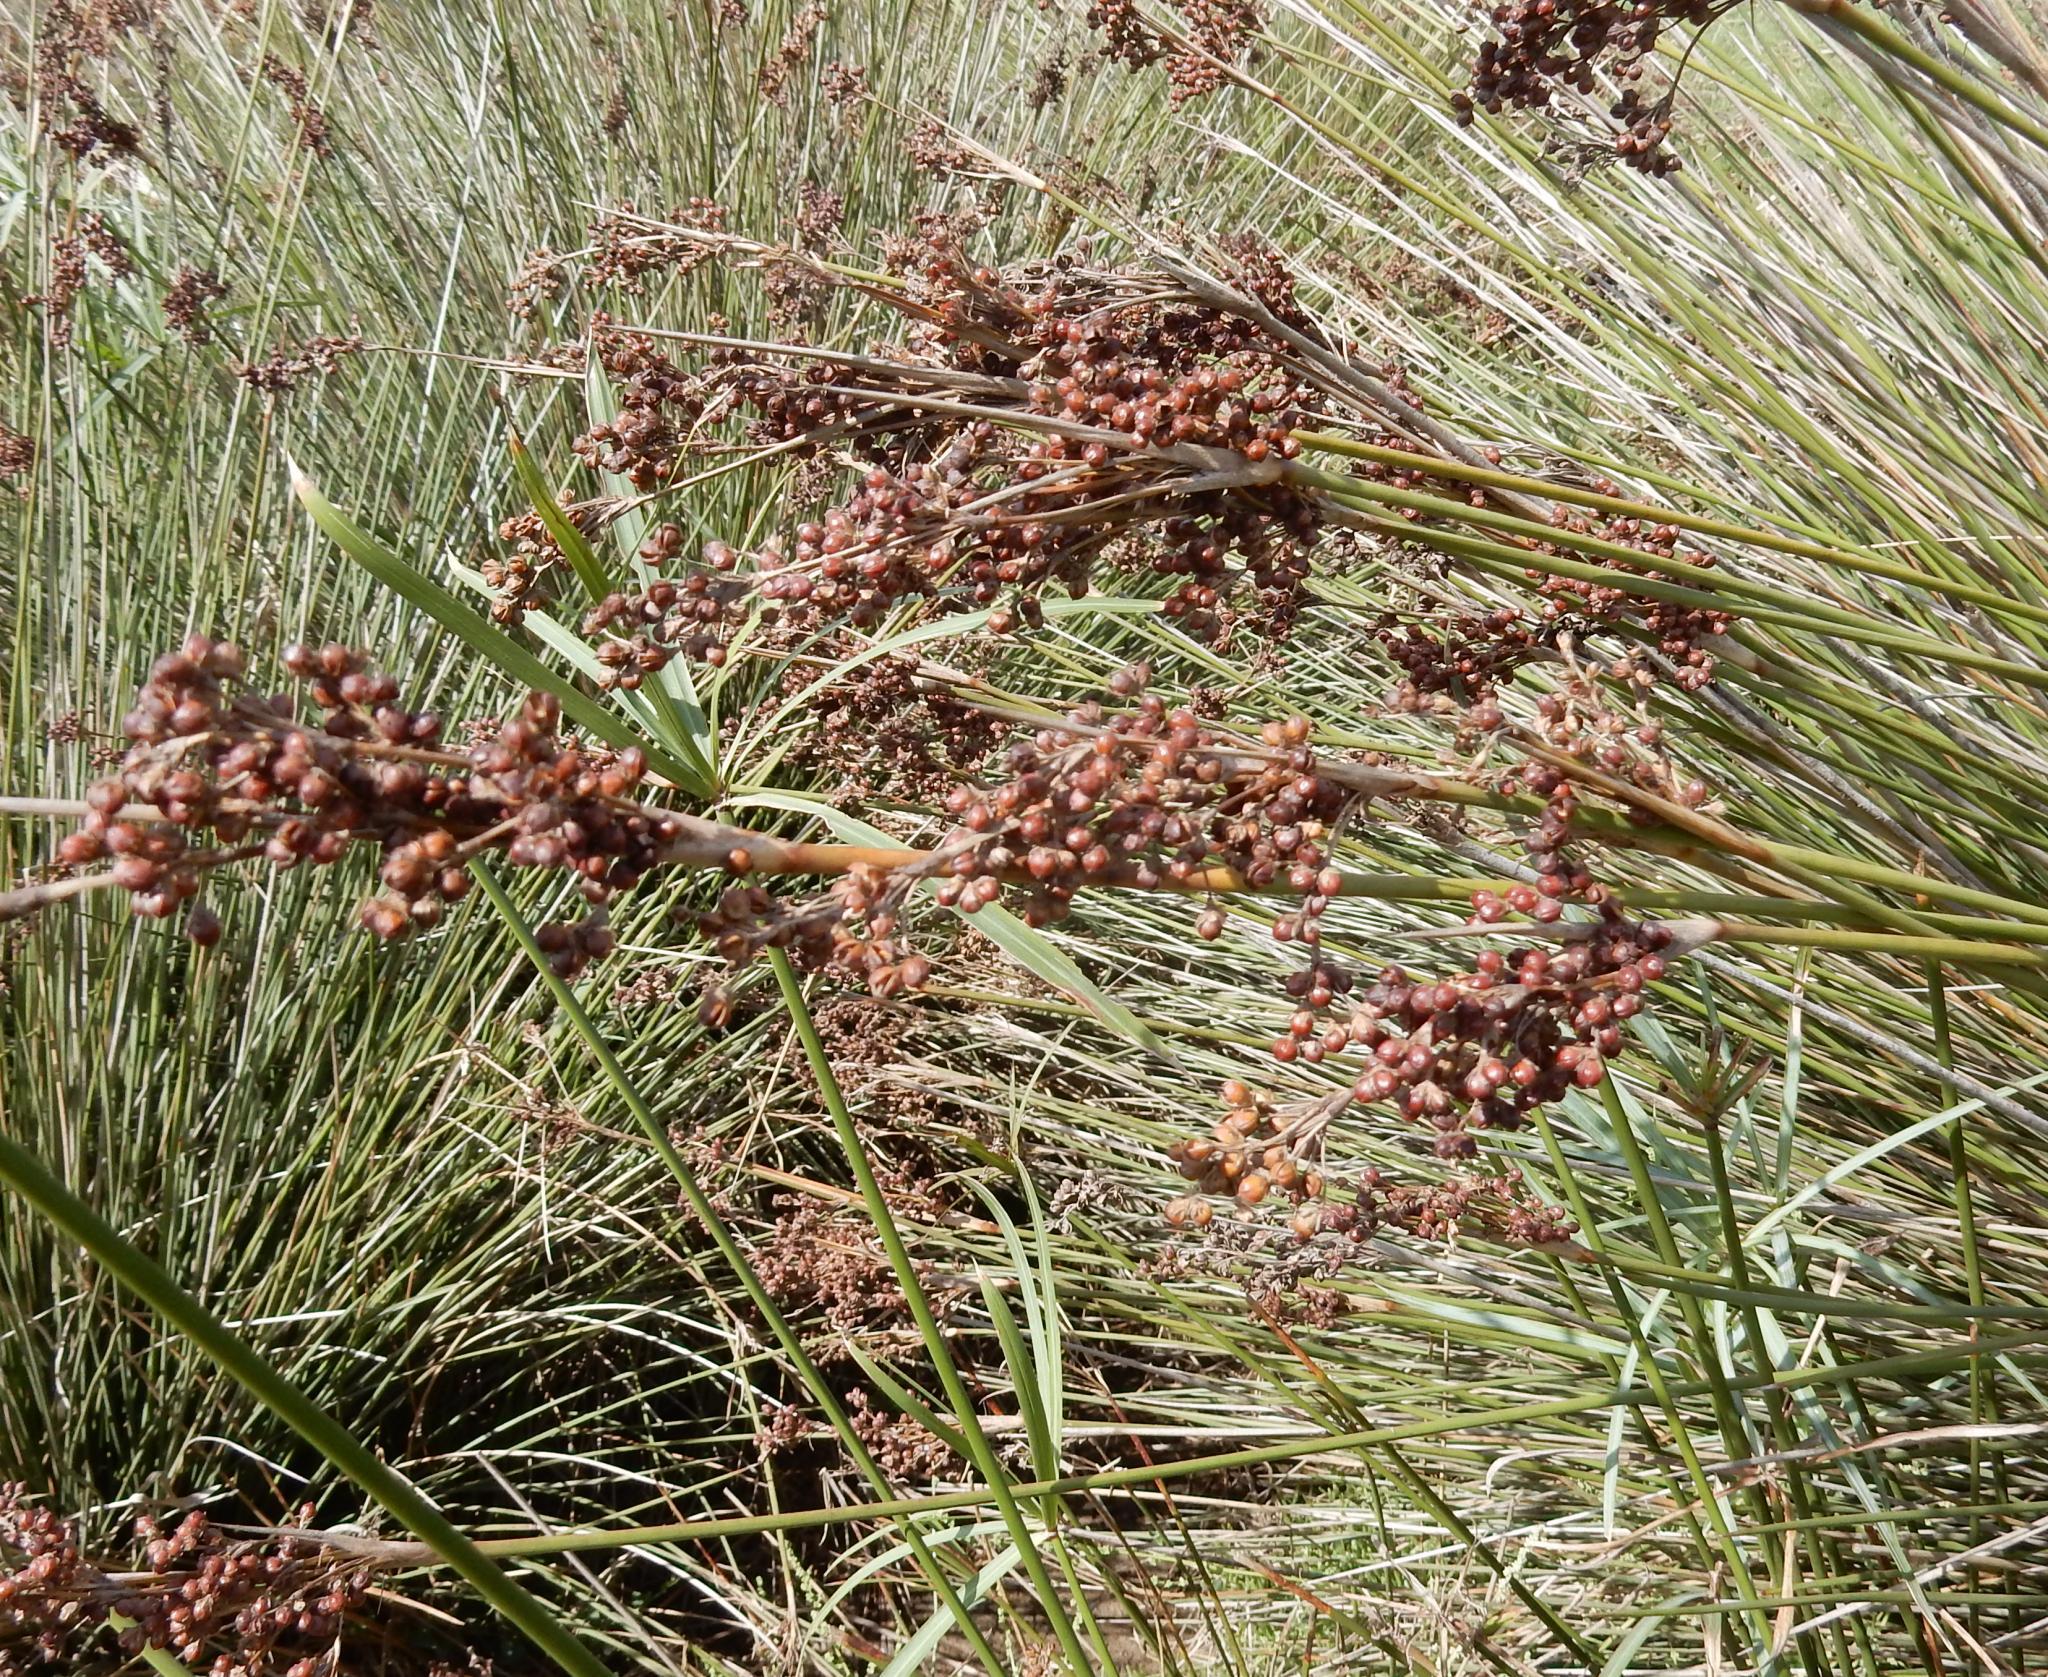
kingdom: Plantae
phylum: Tracheophyta
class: Liliopsida
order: Poales
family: Juncaceae
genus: Juncus
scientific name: Juncus acutus
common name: Sharp rush
